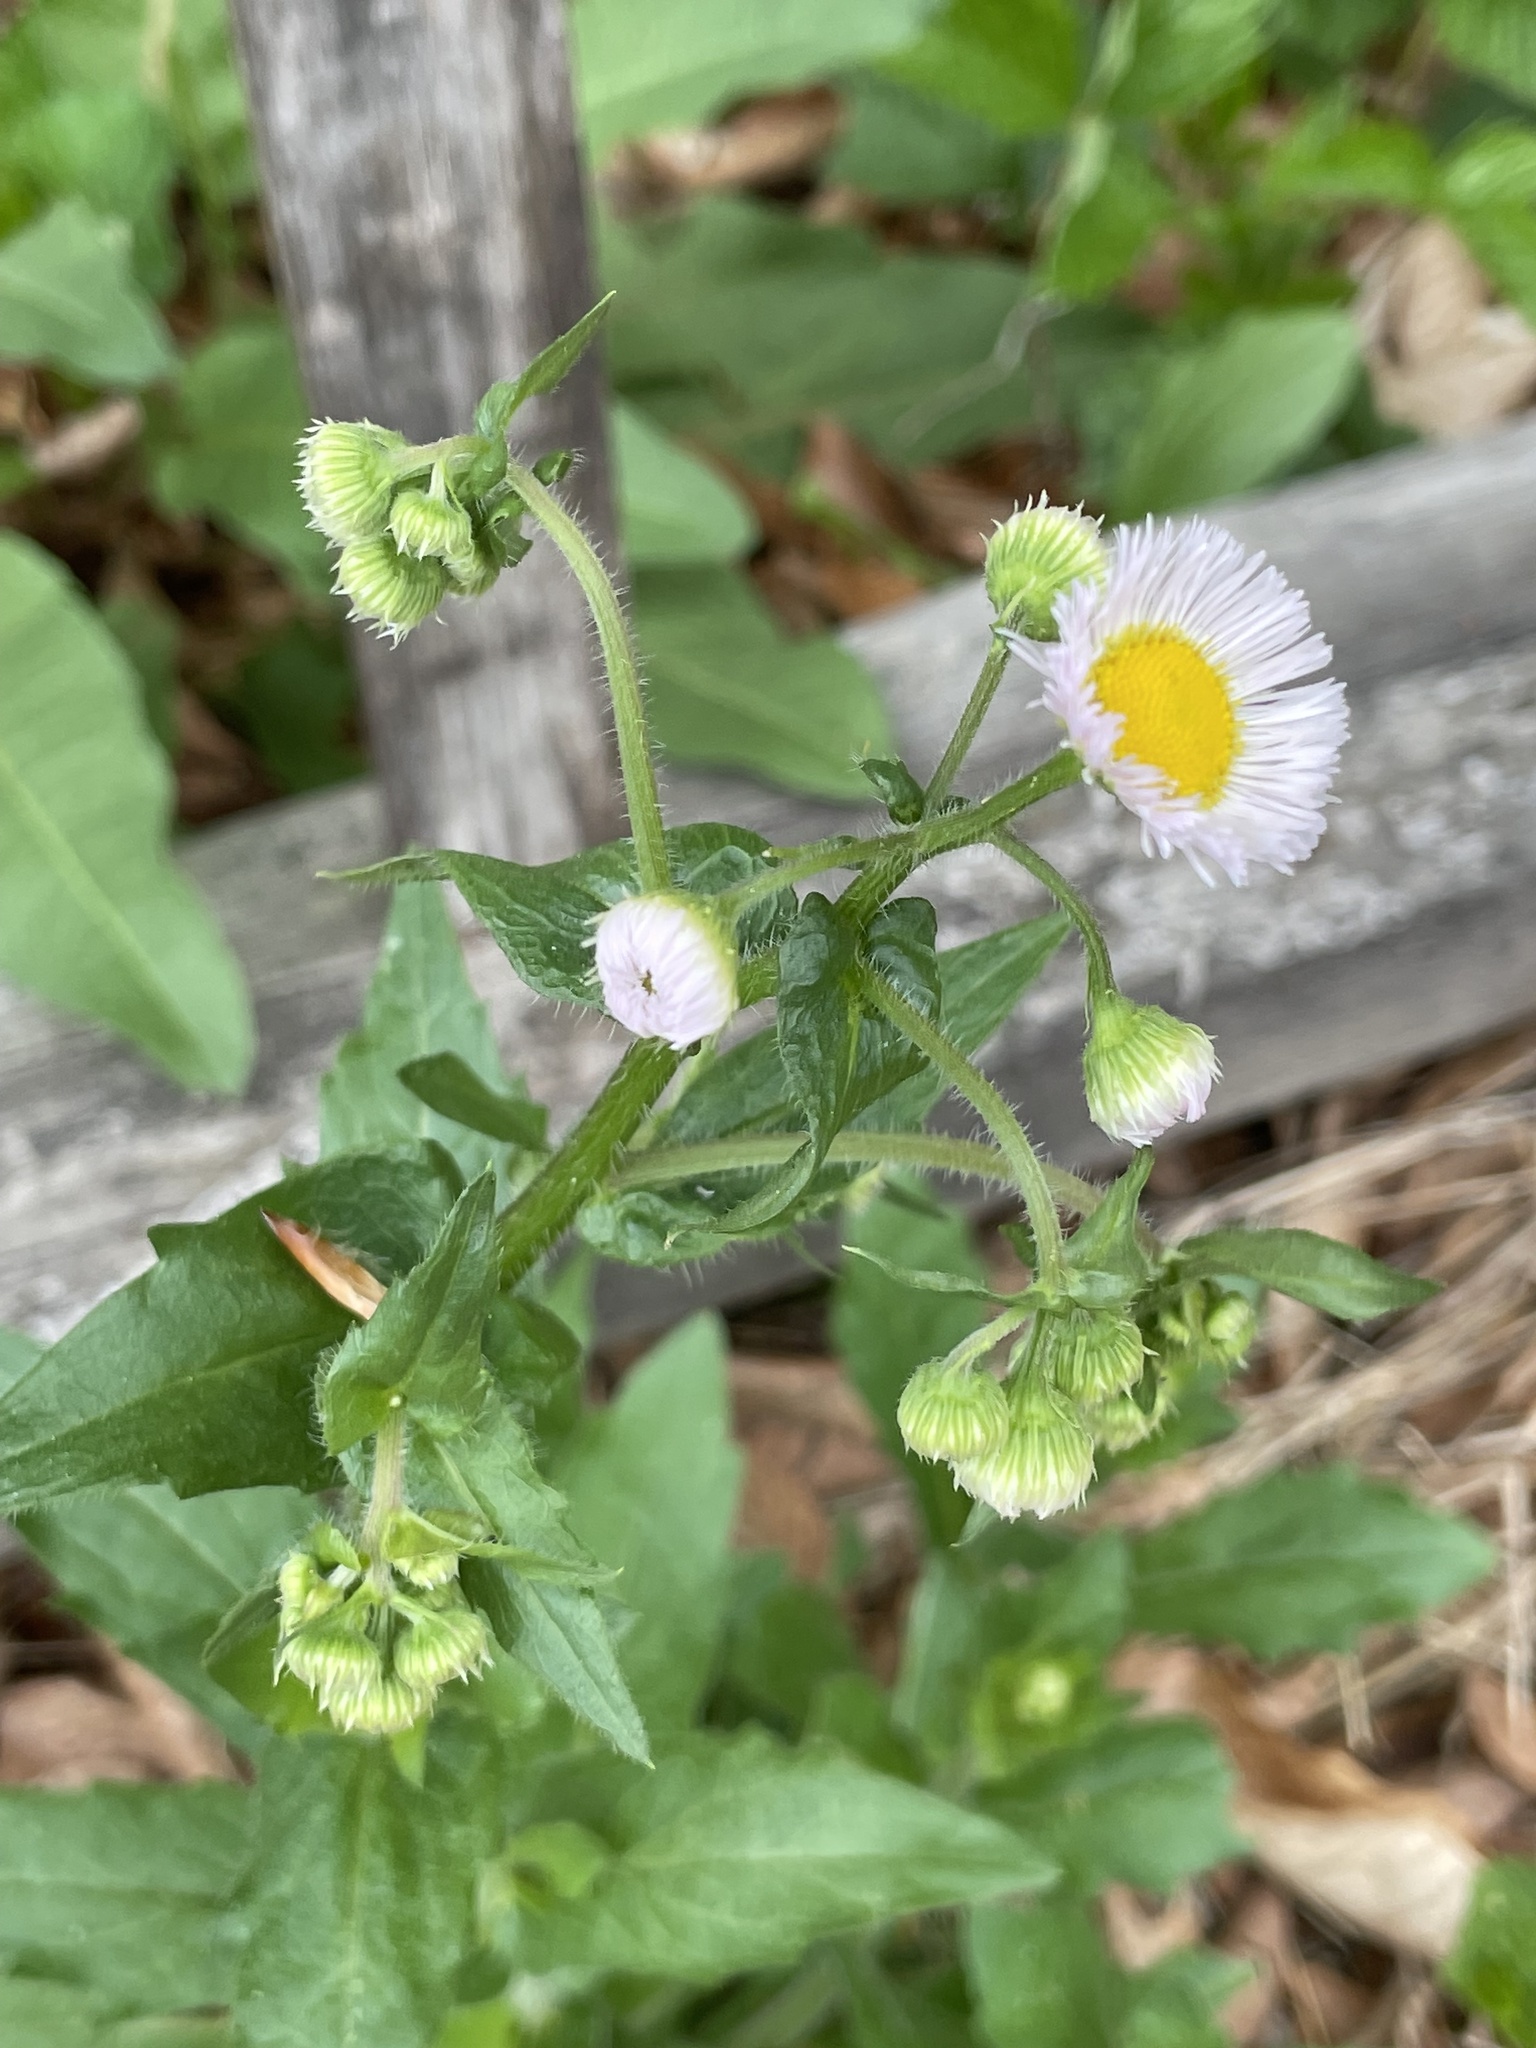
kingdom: Plantae
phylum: Tracheophyta
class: Magnoliopsida
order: Asterales
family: Asteraceae
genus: Erigeron
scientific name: Erigeron philadelphicus
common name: Robin's-plantain
